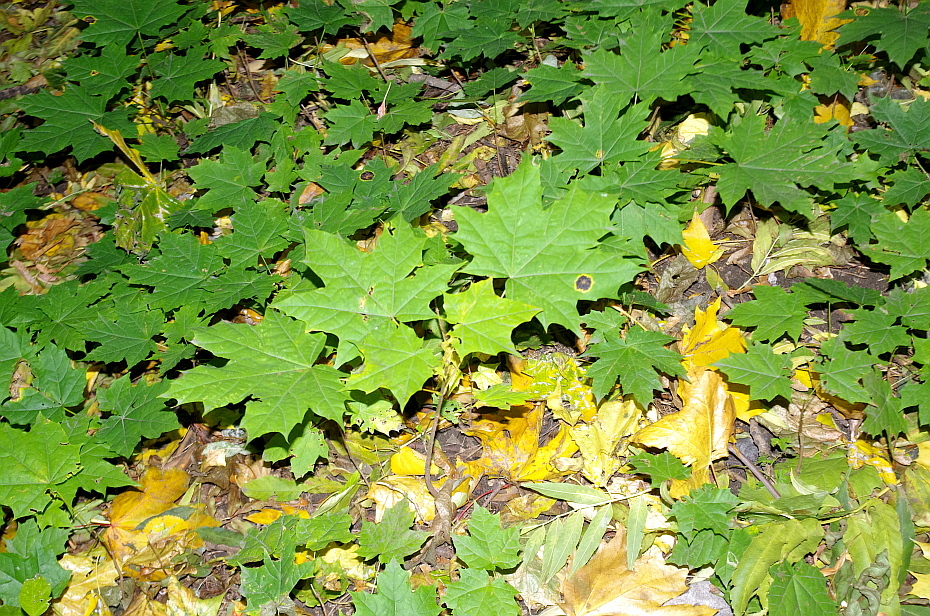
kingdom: Fungi
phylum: Ascomycota
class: Leotiomycetes
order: Rhytismatales
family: Rhytismataceae
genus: Rhytisma
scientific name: Rhytisma acerinum
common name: European tar spot
